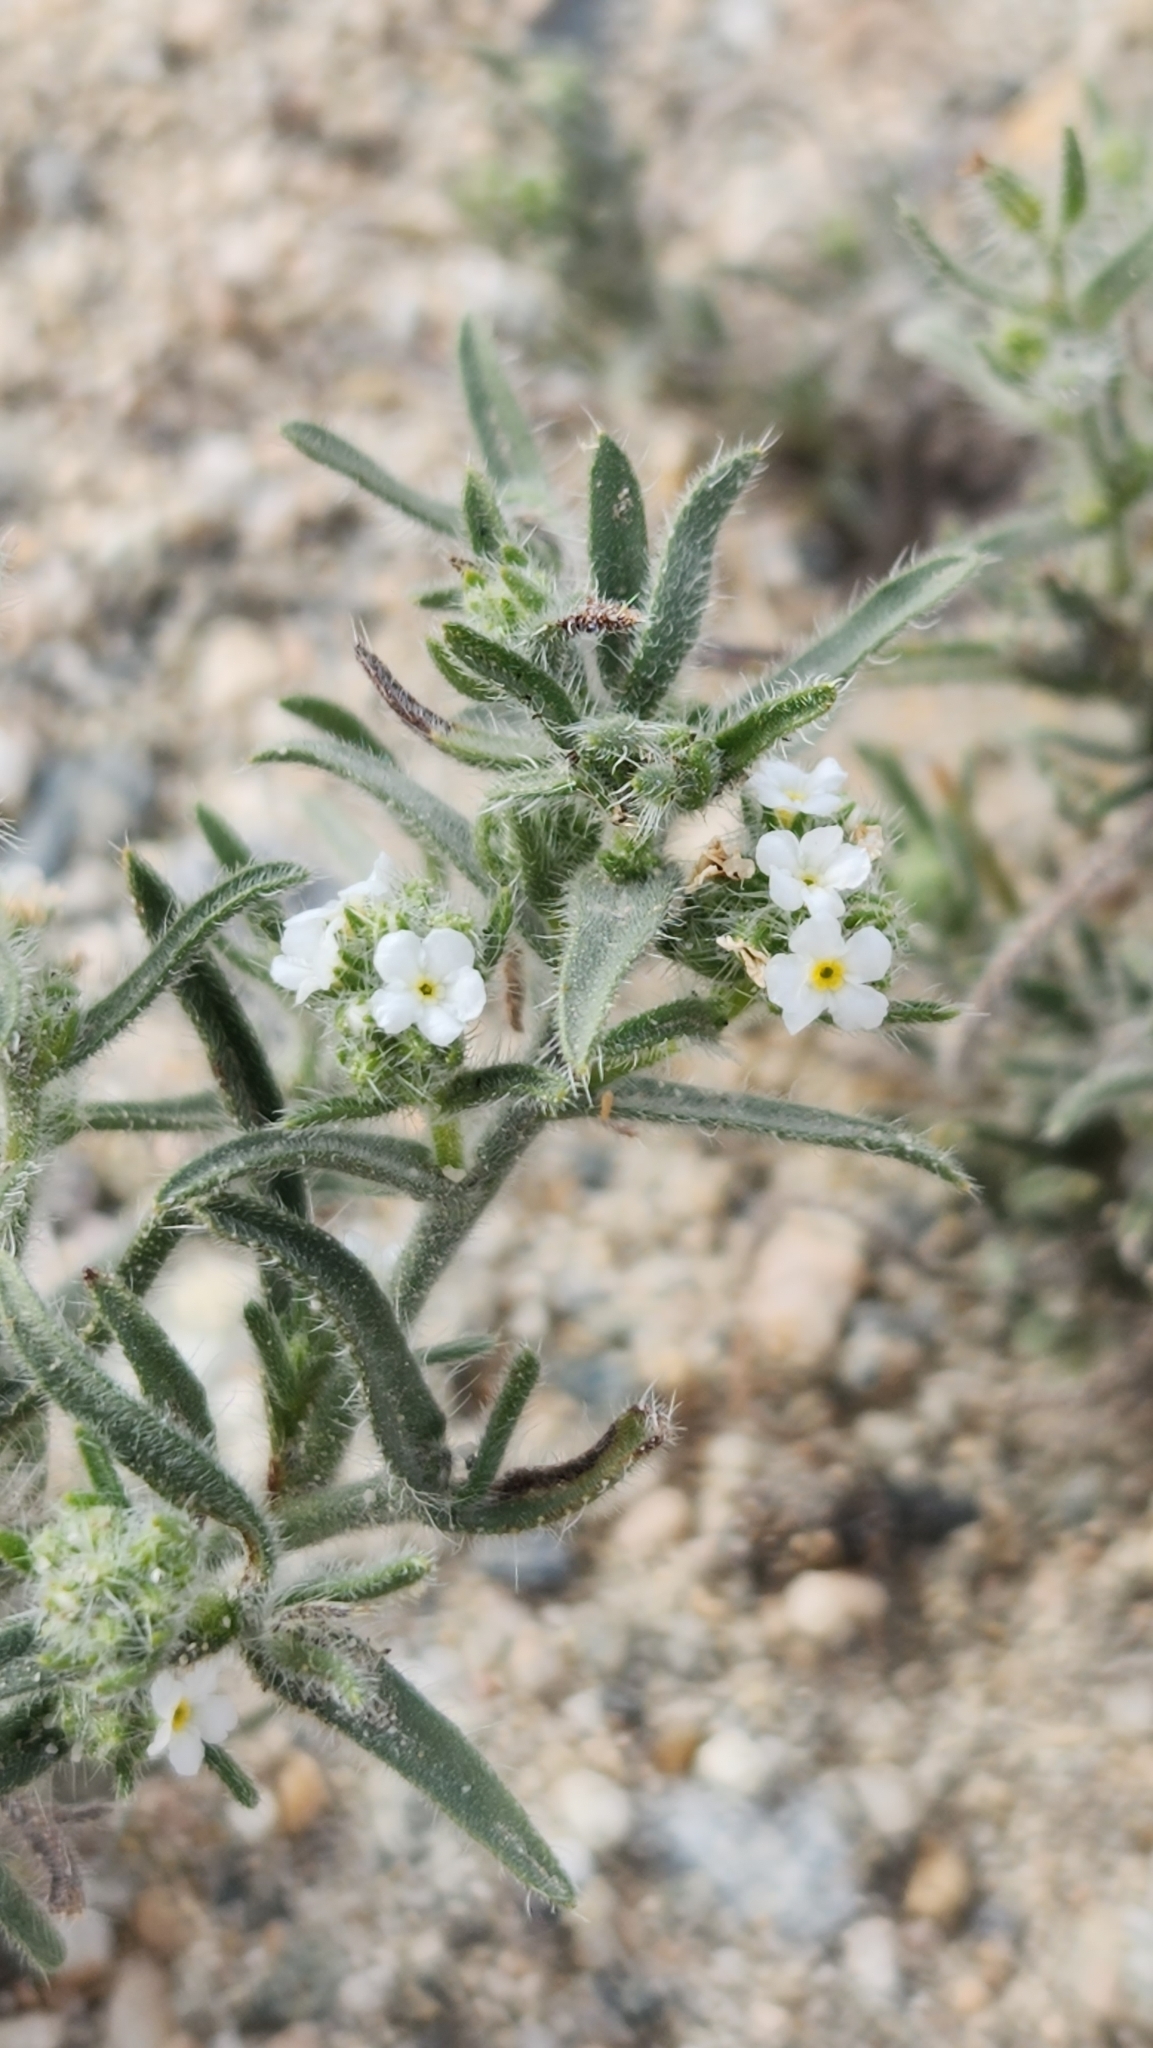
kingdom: Plantae
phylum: Tracheophyta
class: Magnoliopsida
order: Boraginales
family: Boraginaceae
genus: Johnstonella
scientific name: Johnstonella angustifolia
